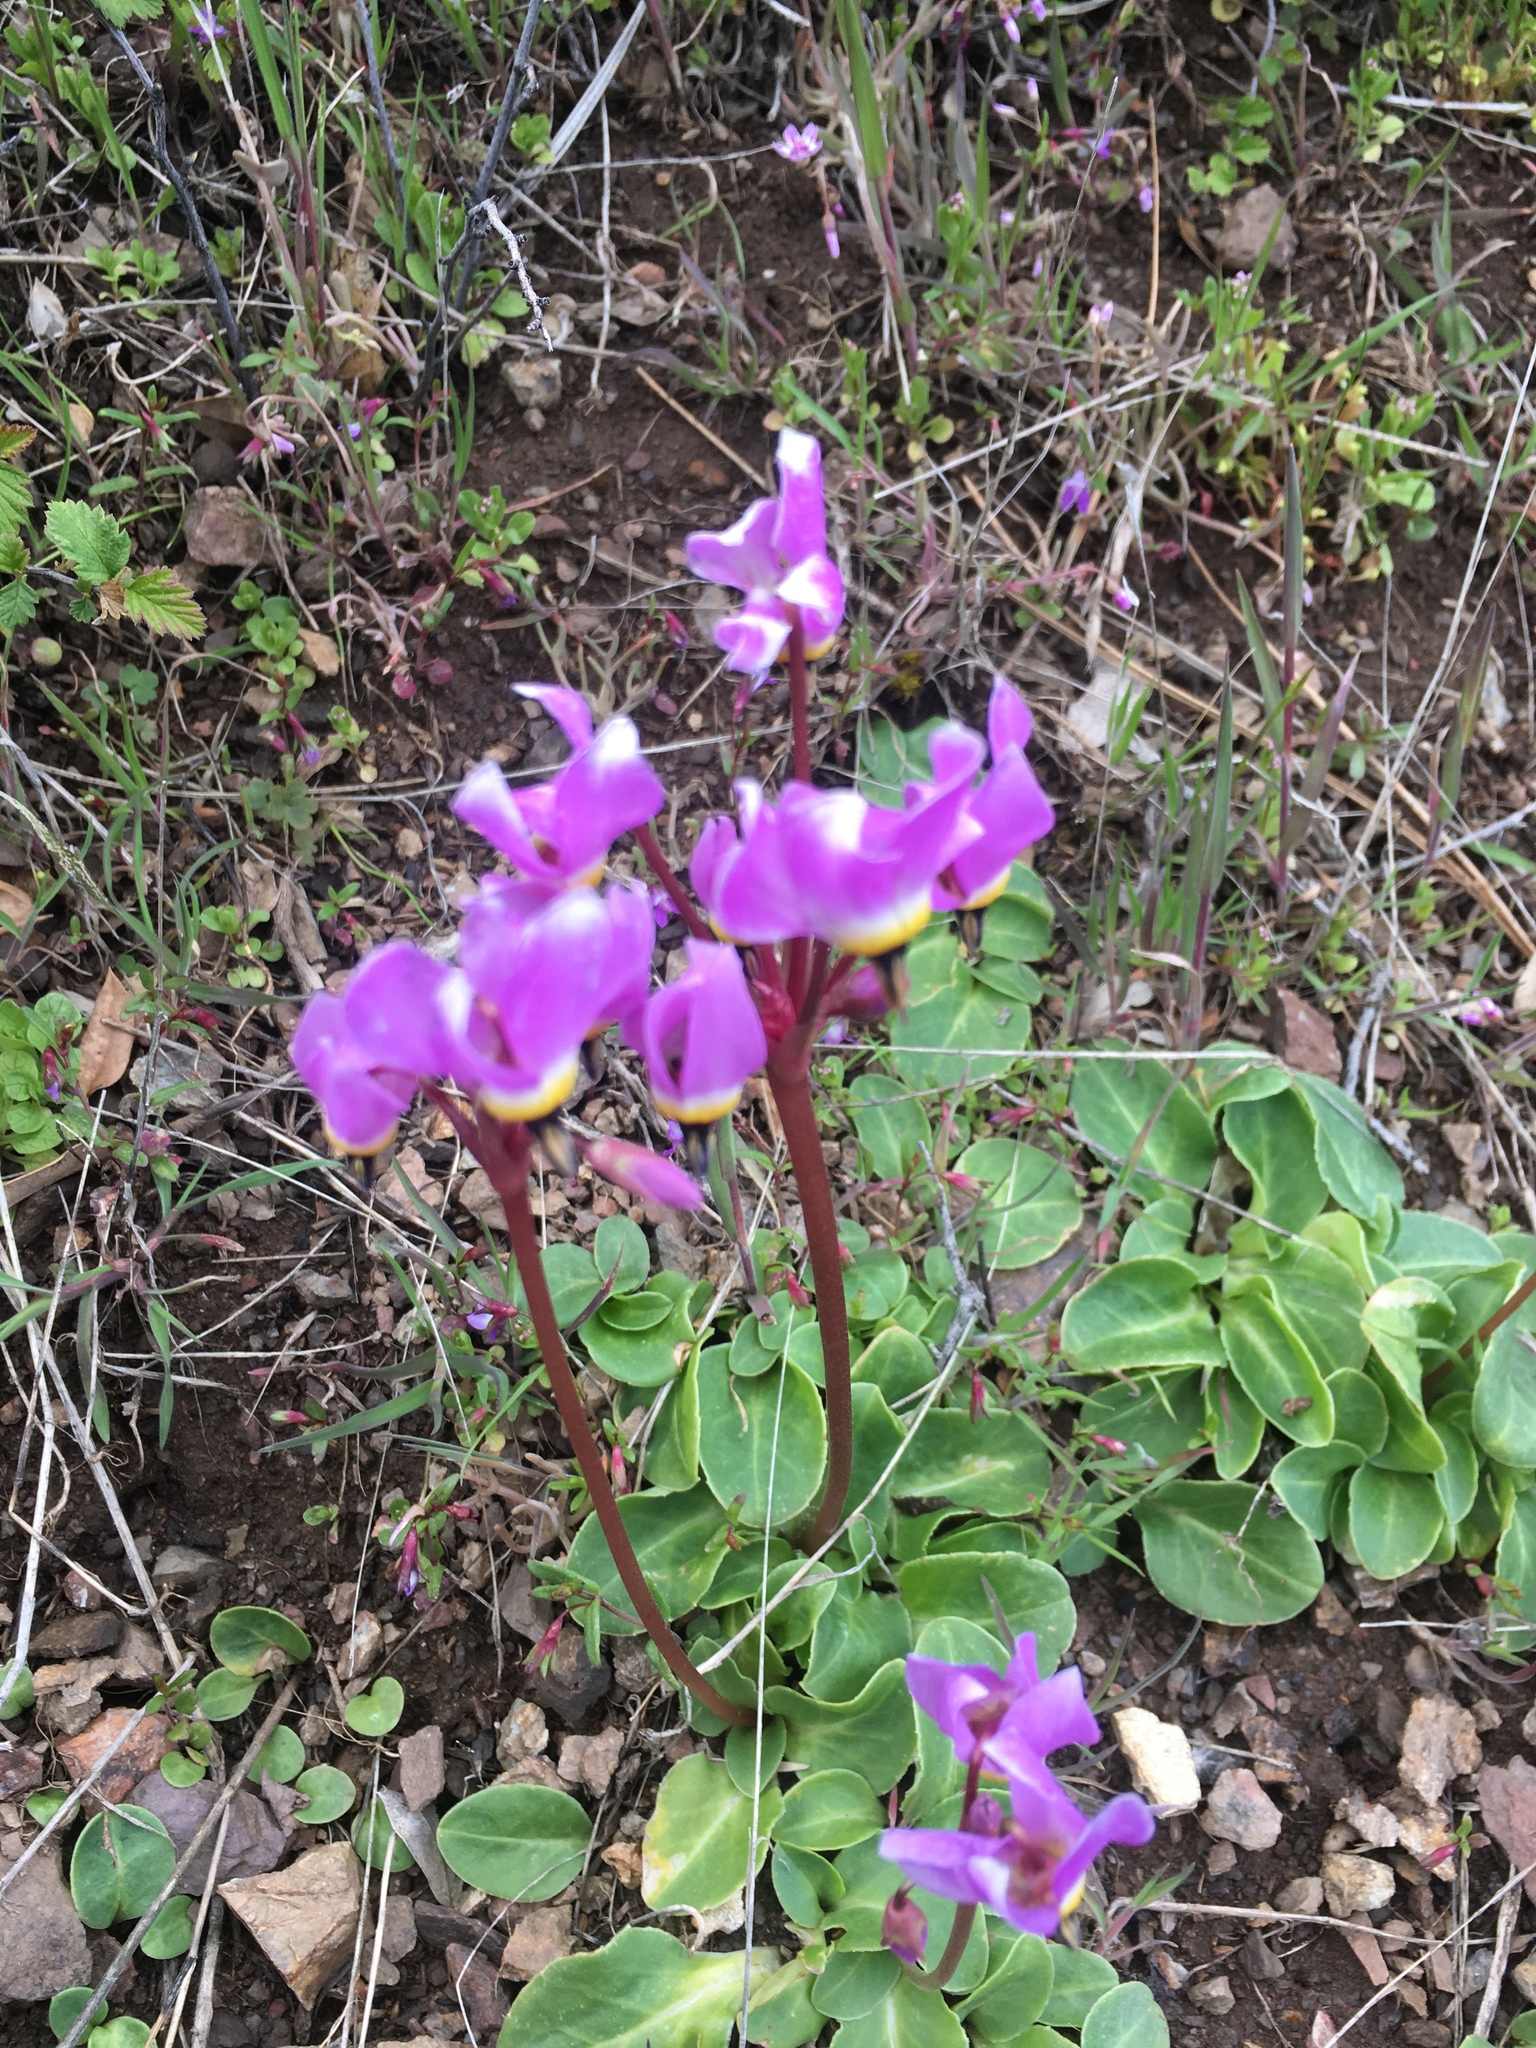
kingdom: Plantae
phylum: Tracheophyta
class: Magnoliopsida
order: Ericales
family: Primulaceae
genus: Dodecatheon
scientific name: Dodecatheon hendersonii
